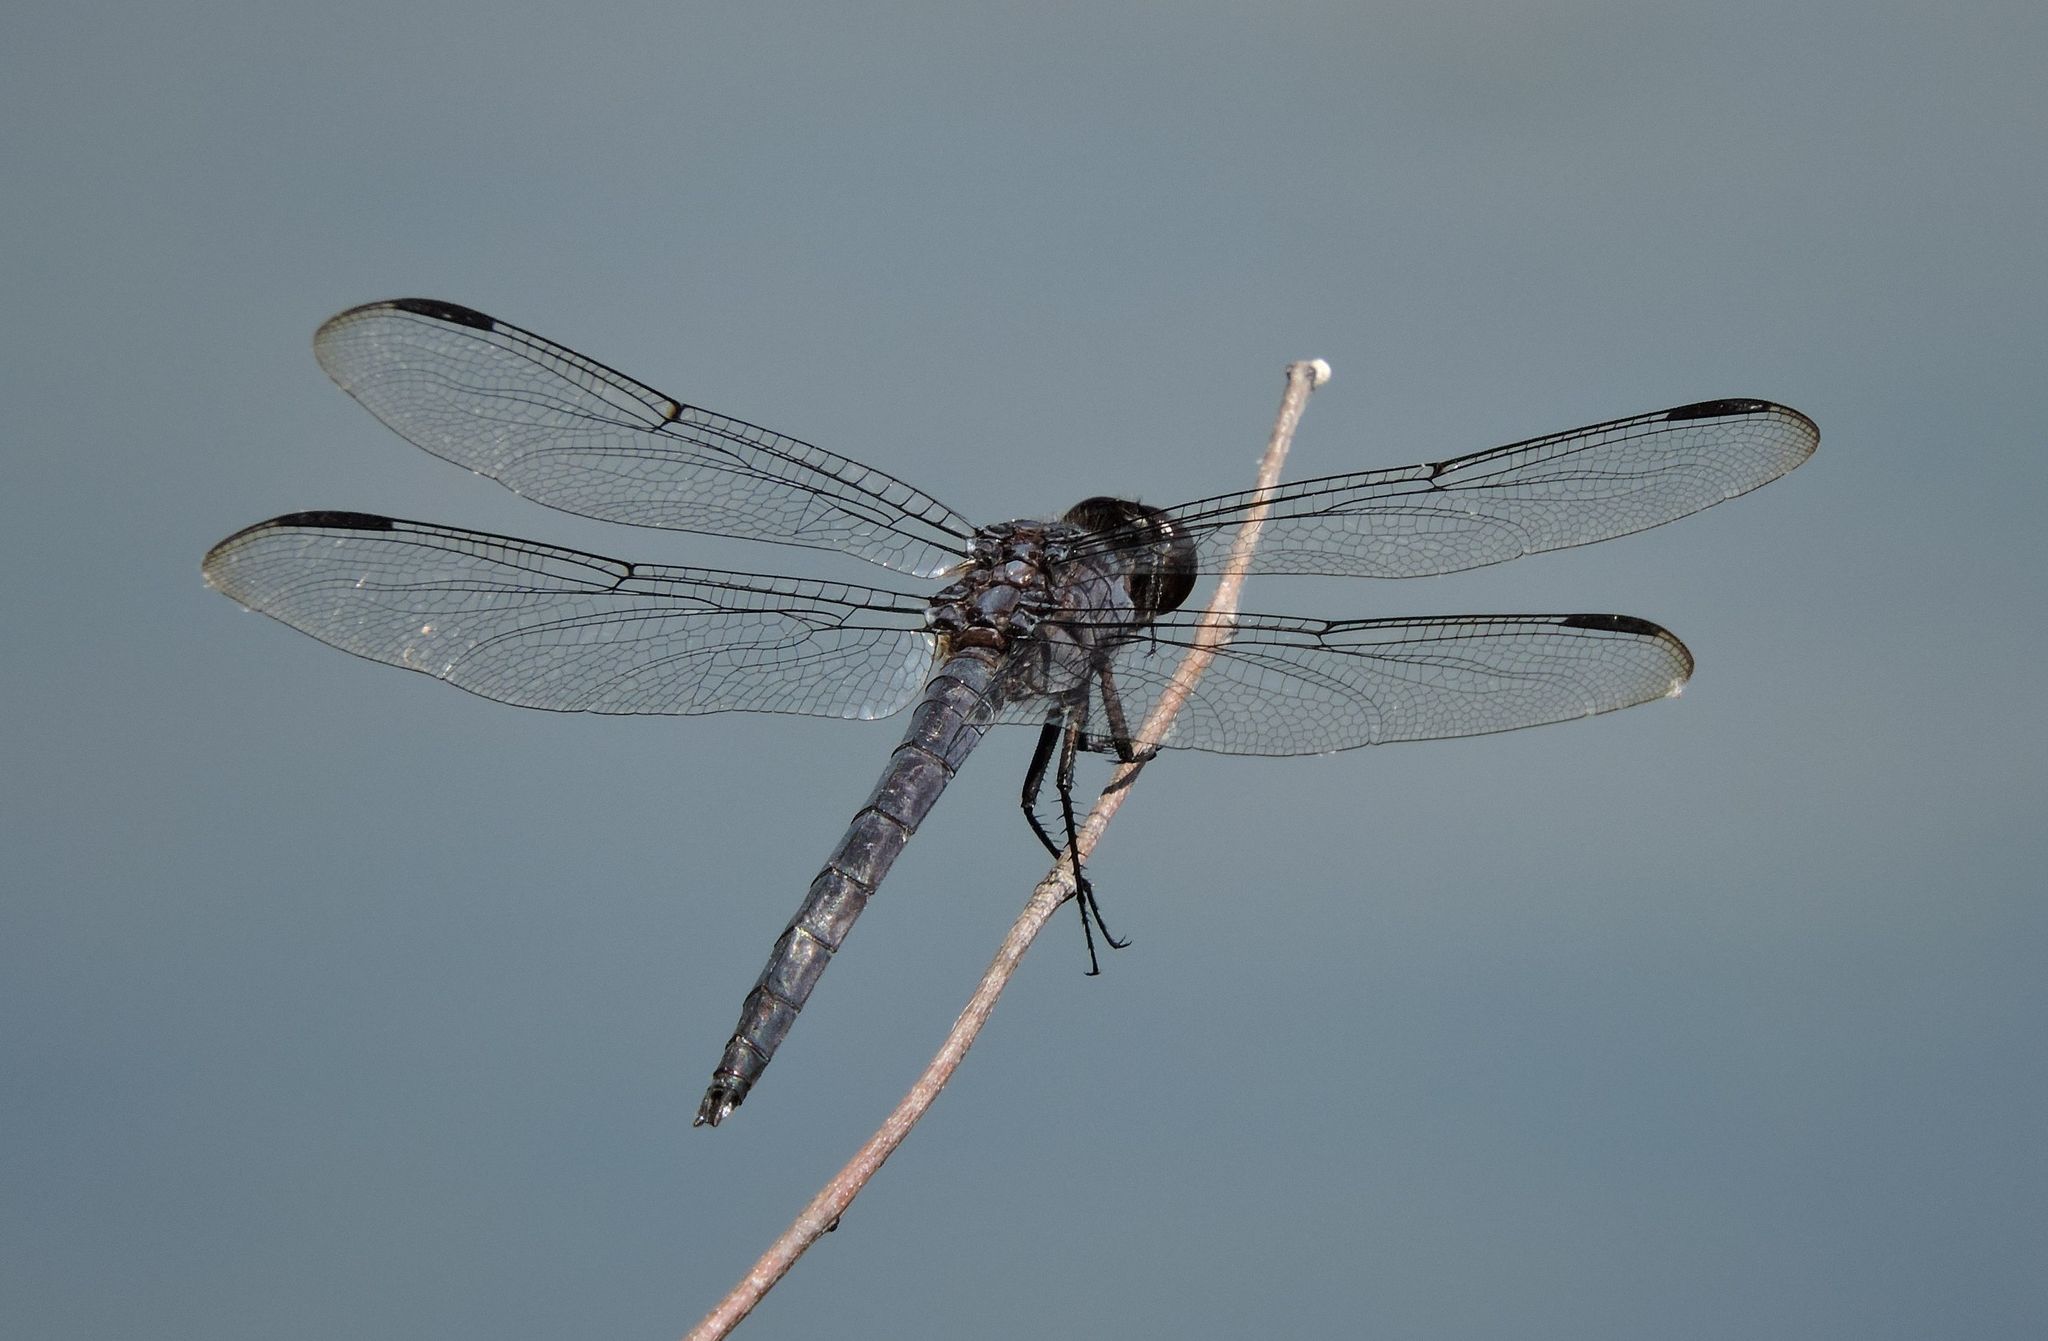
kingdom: Animalia
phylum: Arthropoda
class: Insecta
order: Odonata
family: Libellulidae
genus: Libellula
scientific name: Libellula incesta
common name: Slaty skimmer
